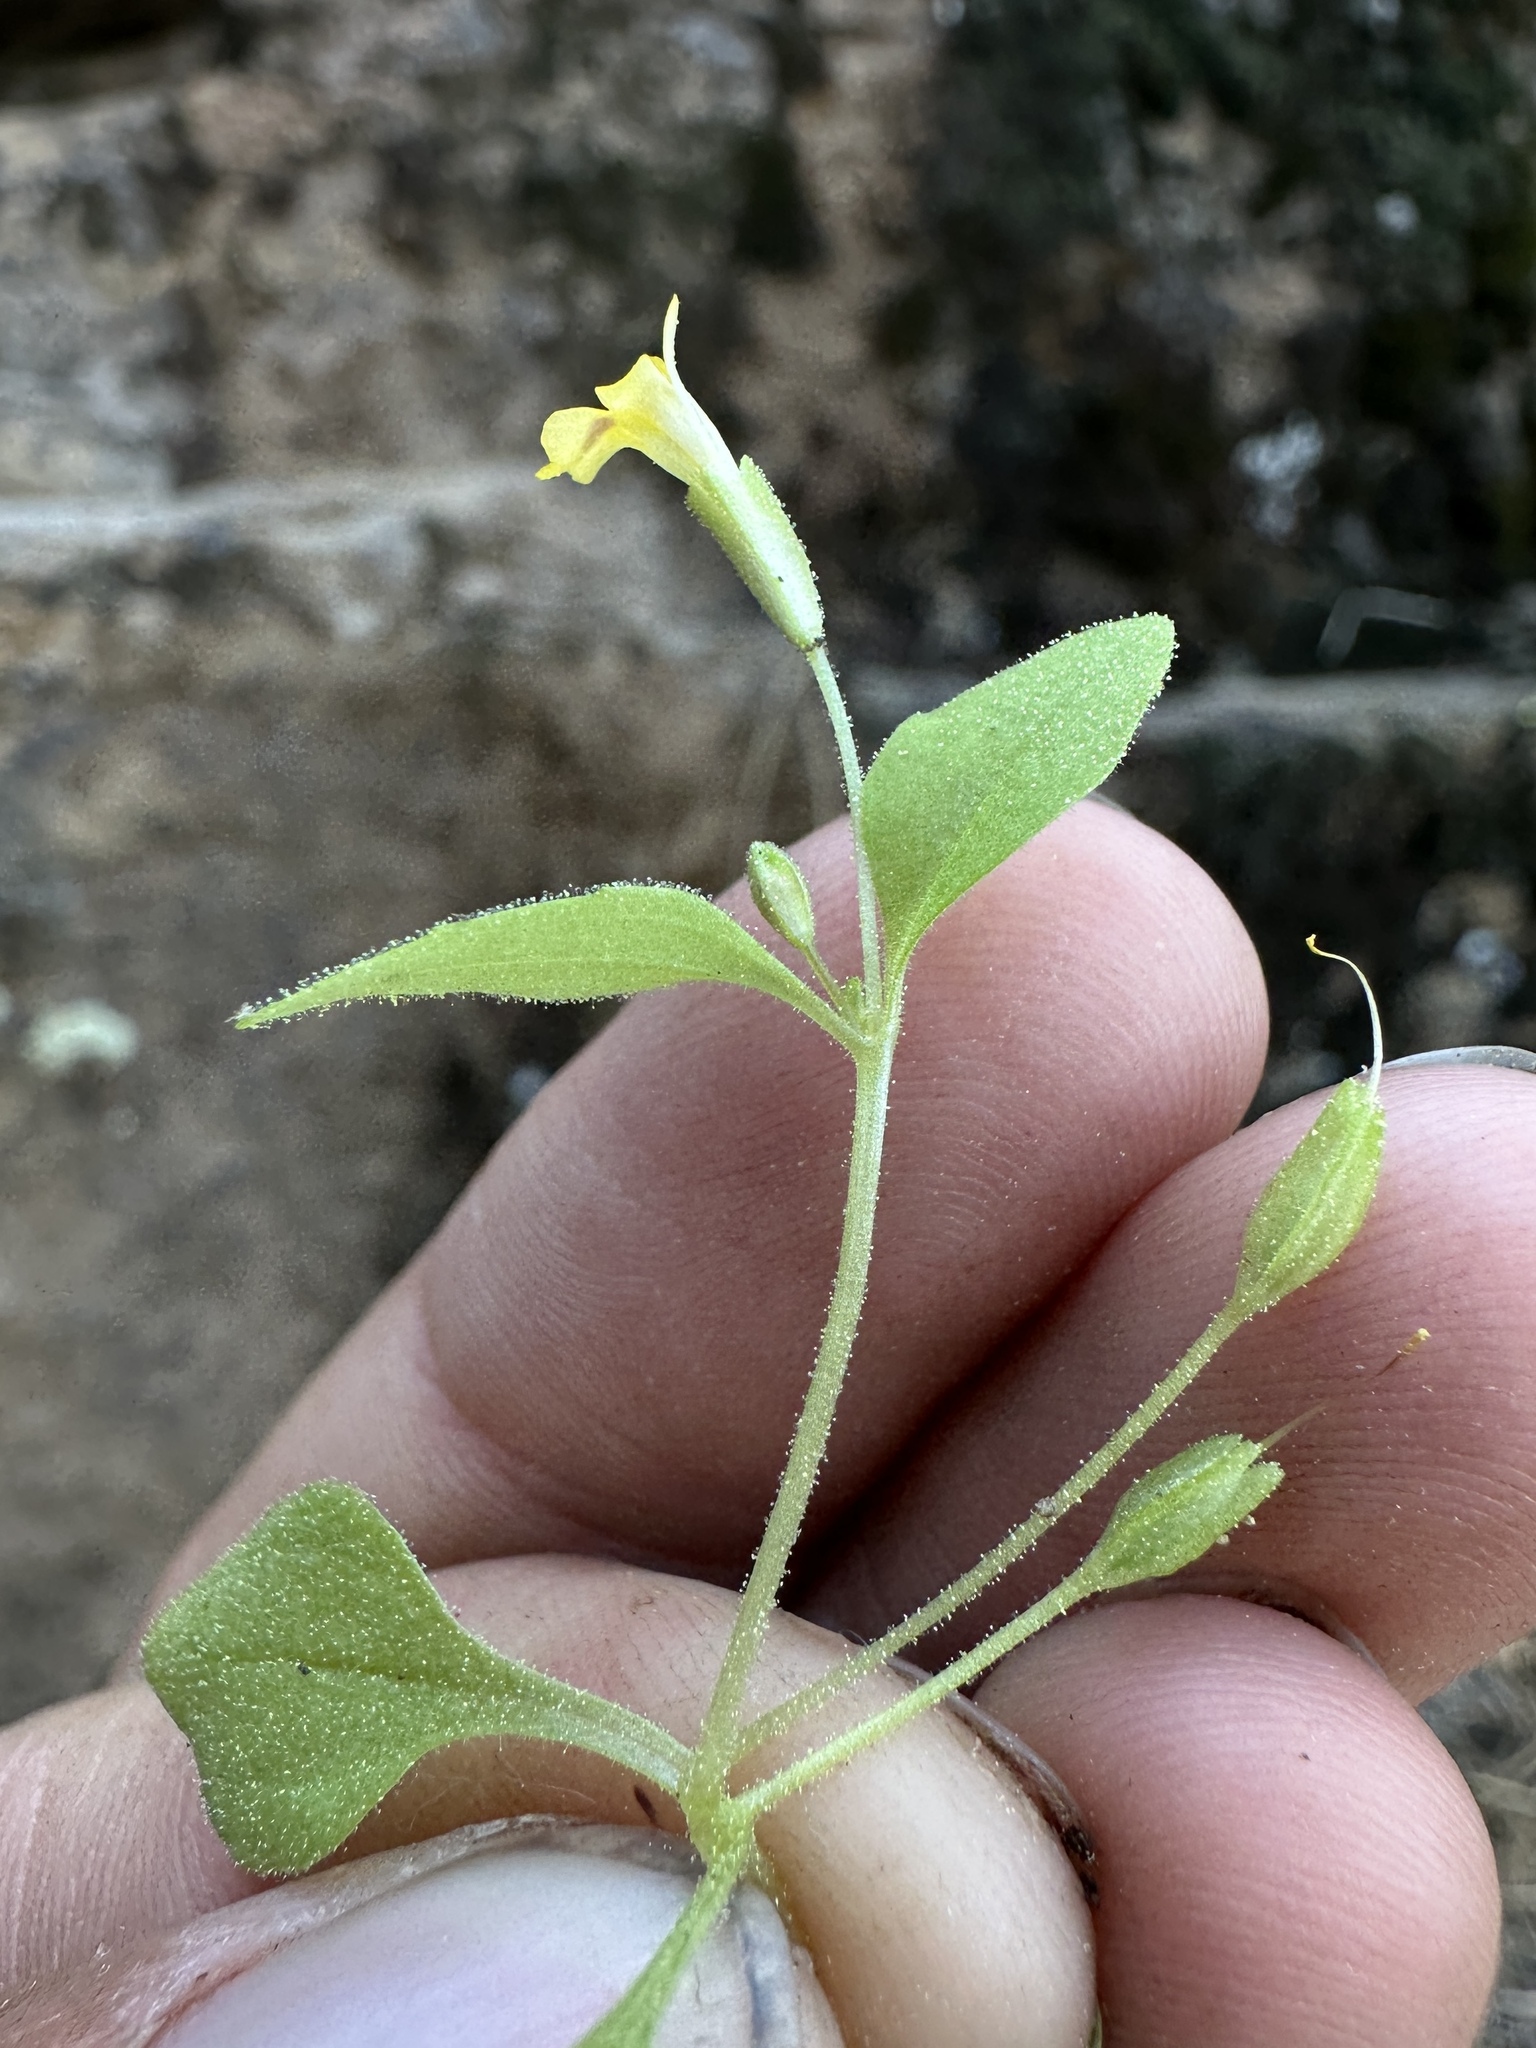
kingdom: Plantae
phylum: Tracheophyta
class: Magnoliopsida
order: Lamiales
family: Phrymaceae
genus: Erythranthe
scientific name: Erythranthe alsinoides
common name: Chickweed monkeyflower
